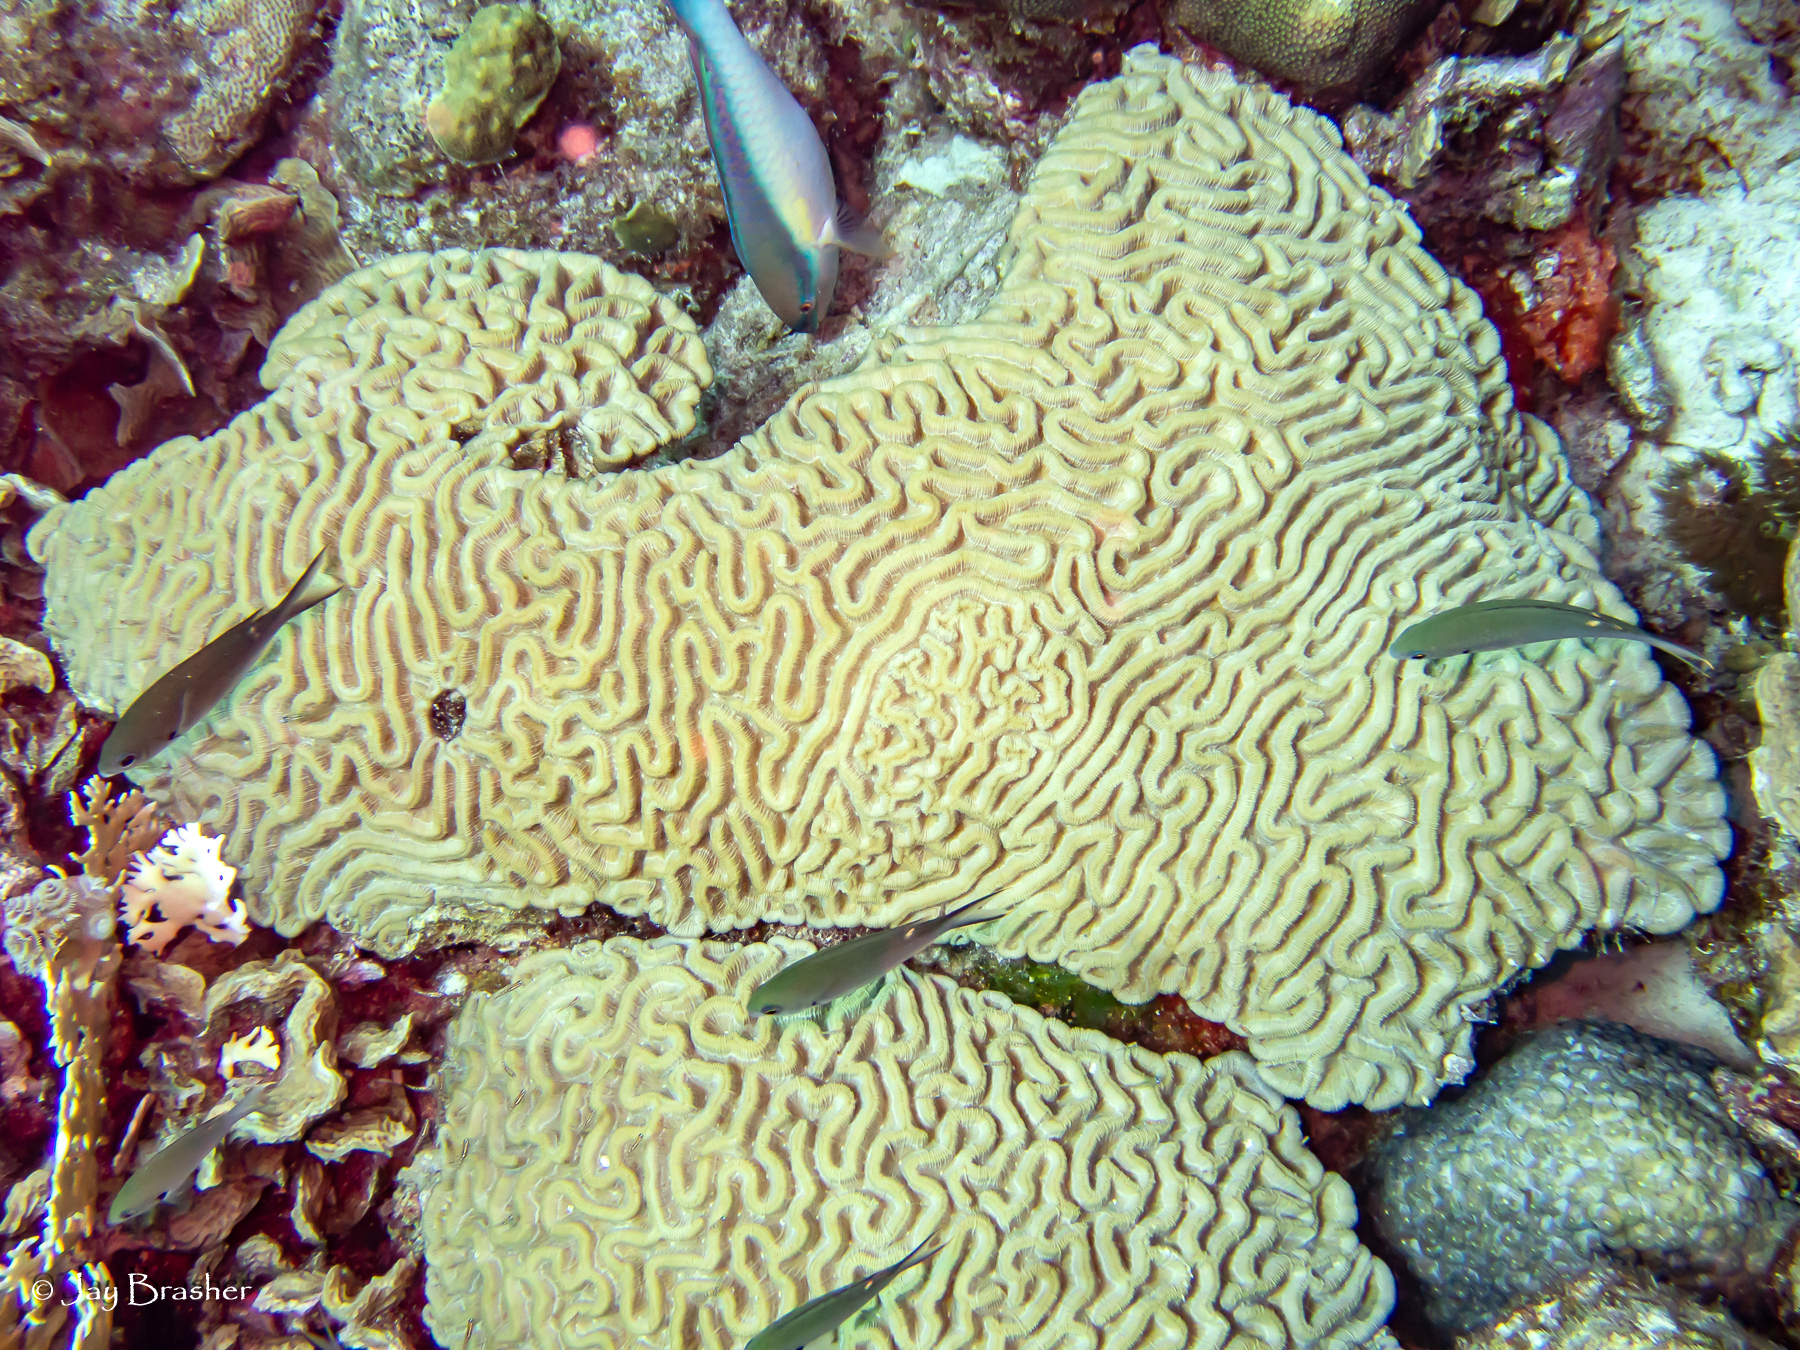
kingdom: Animalia
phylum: Chordata
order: Perciformes
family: Scaridae
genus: Scarus
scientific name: Scarus taeniopterus
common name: Princess parrotfish
